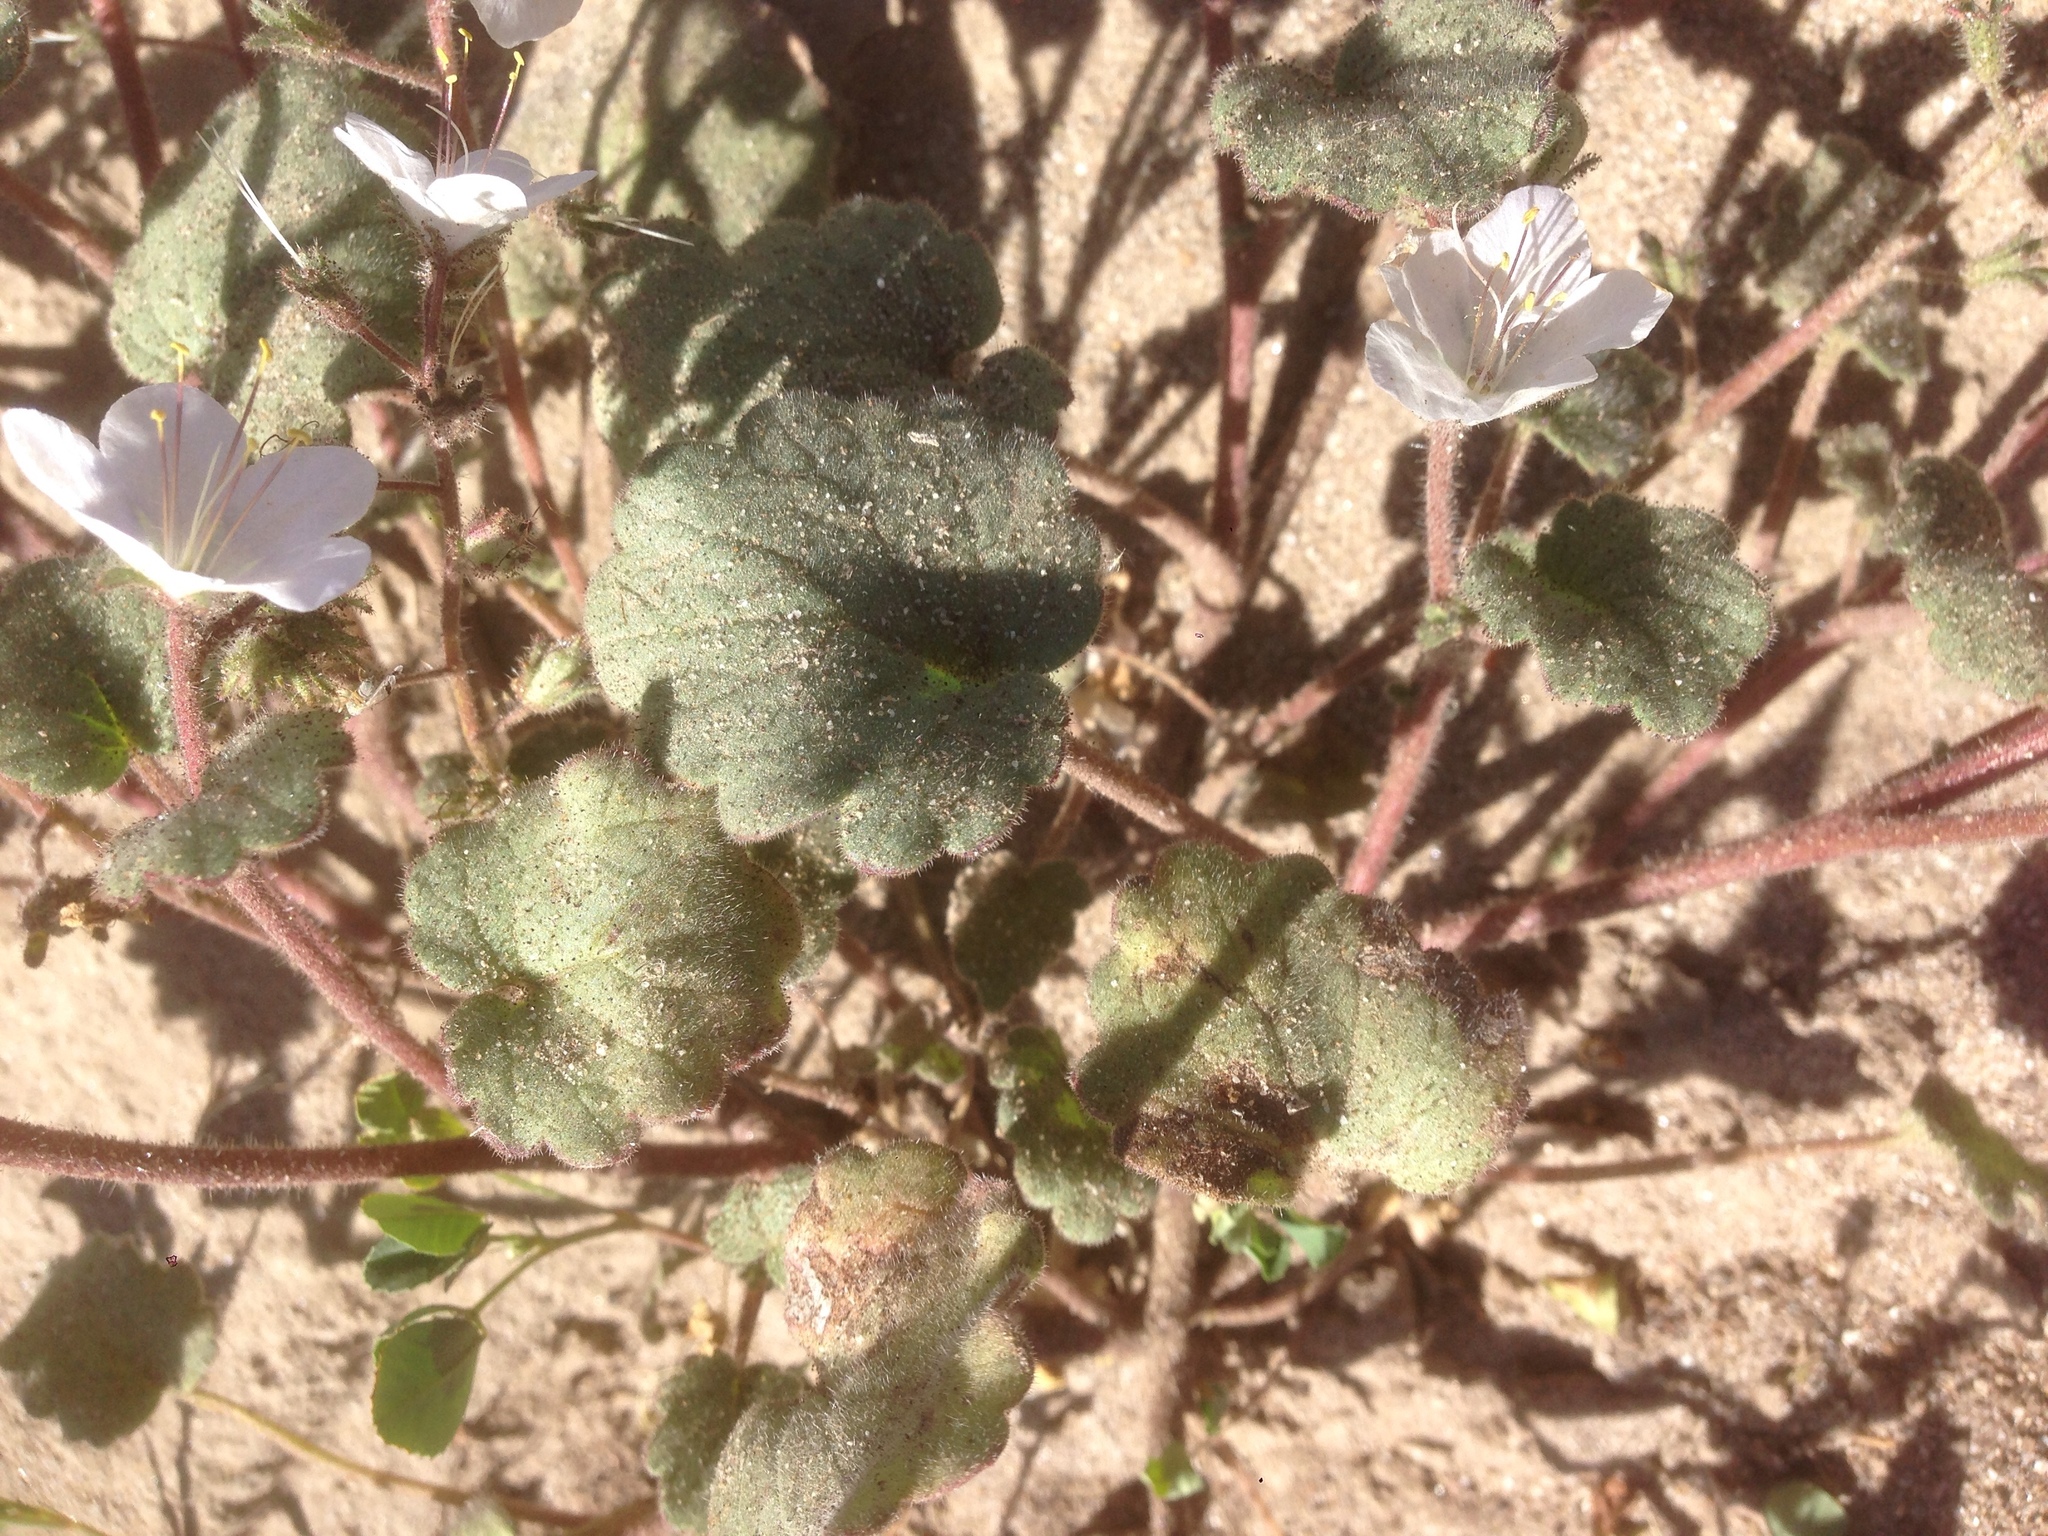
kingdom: Plantae
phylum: Tracheophyta
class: Magnoliopsida
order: Boraginales
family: Hydrophyllaceae
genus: Phacelia
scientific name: Phacelia longipes
